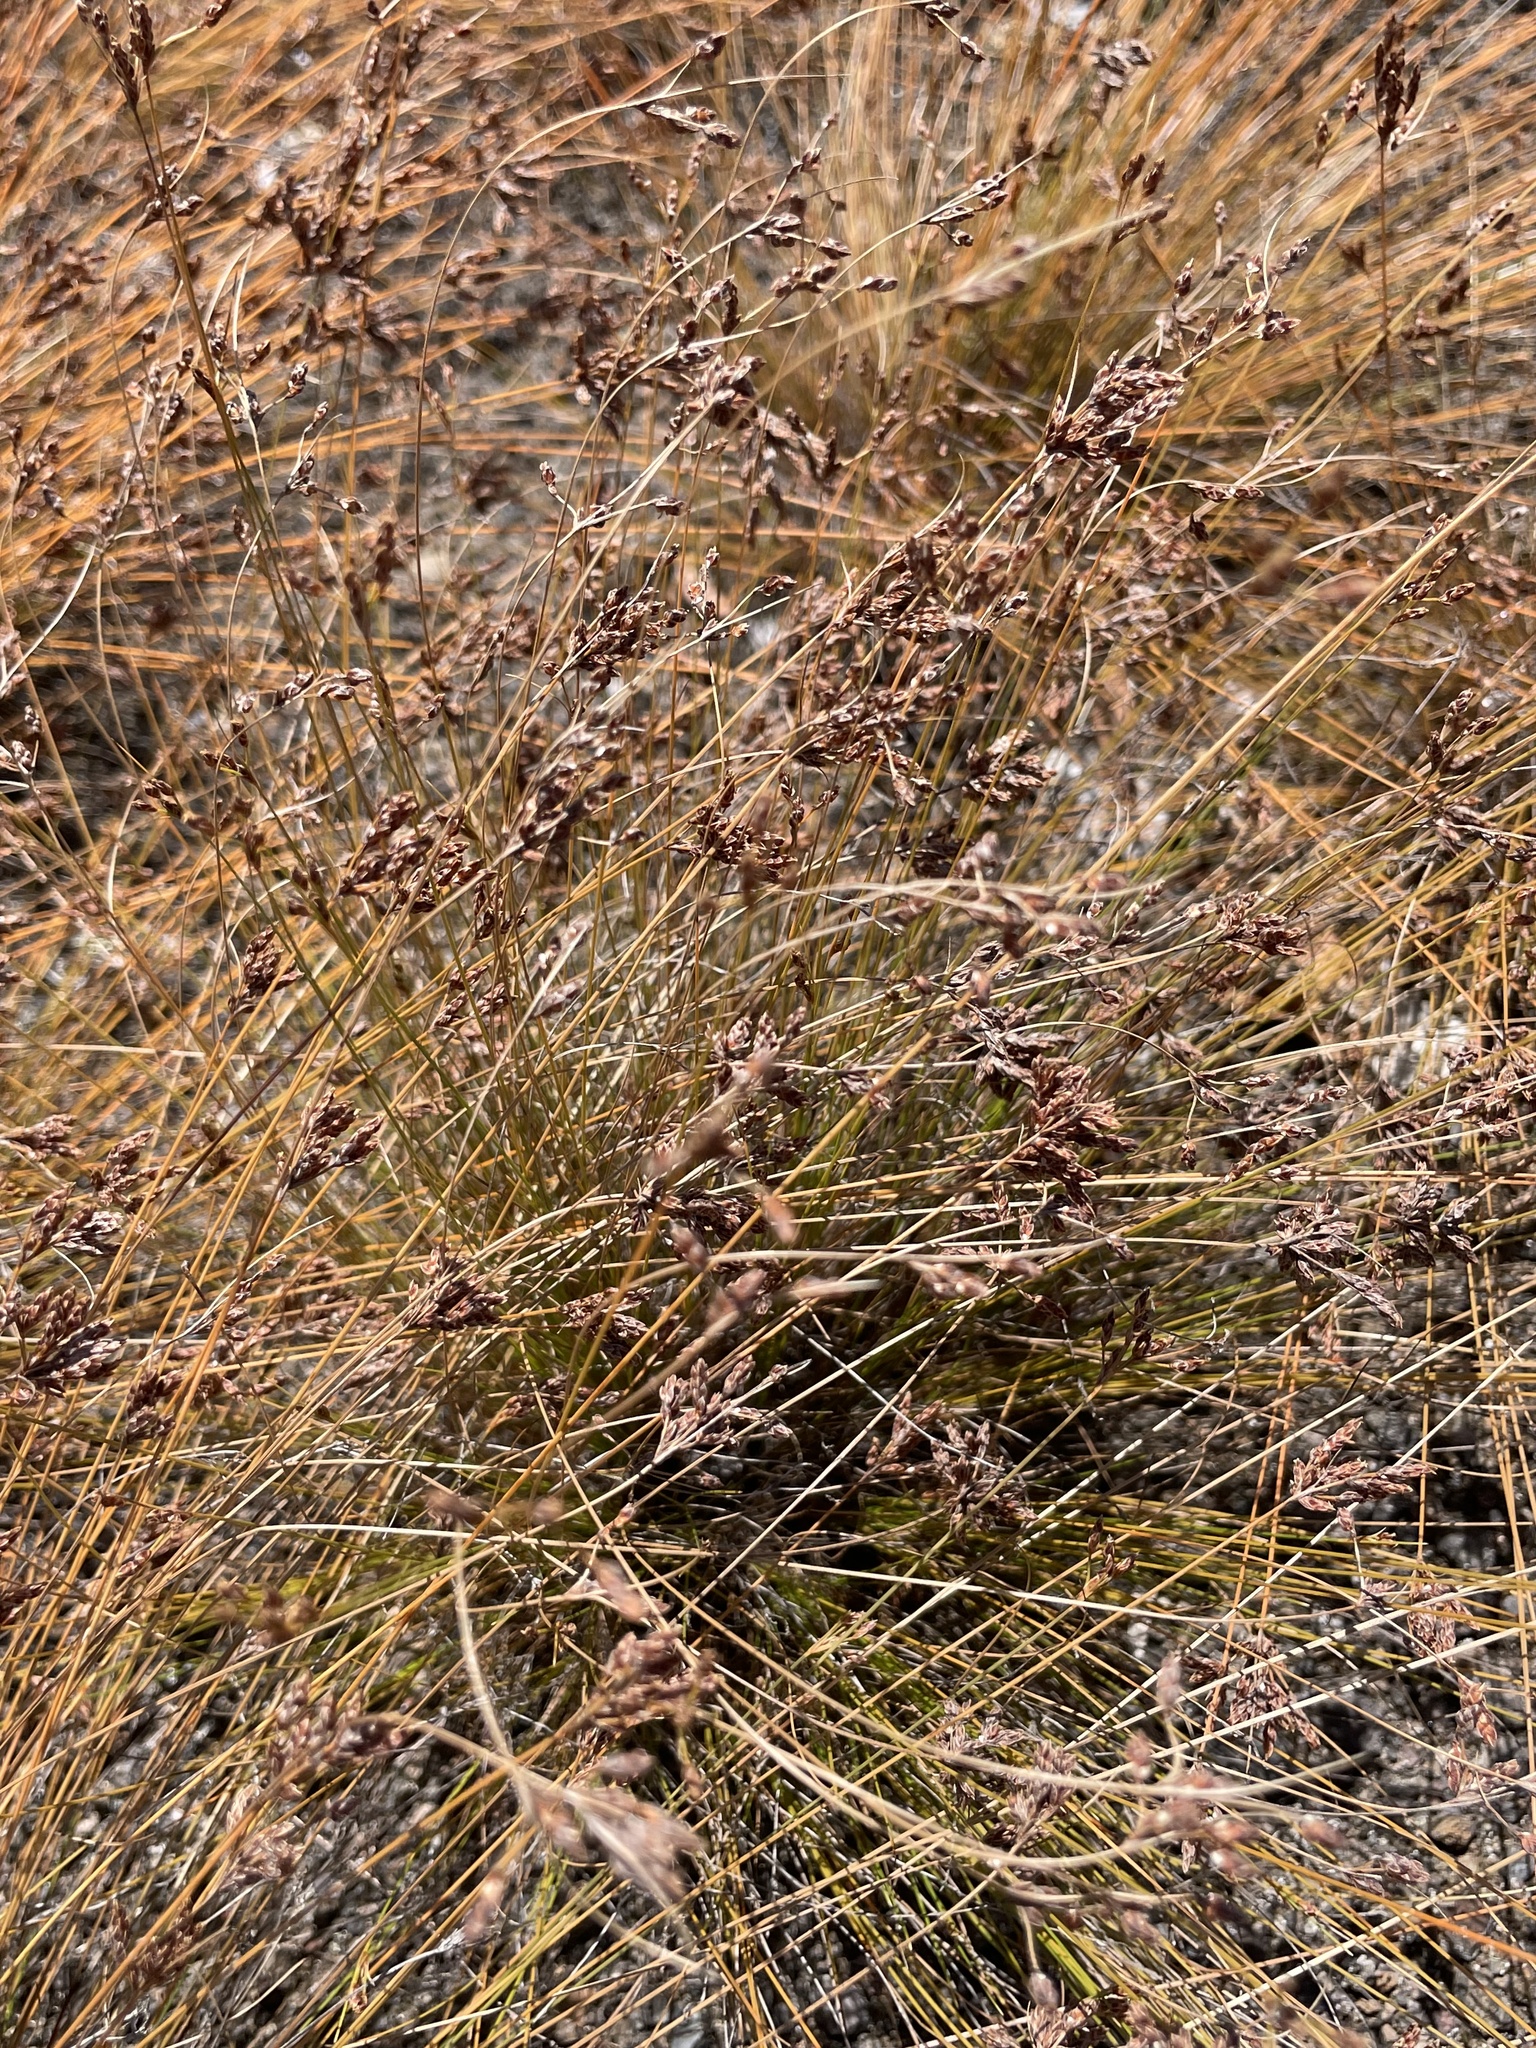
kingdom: Plantae
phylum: Tracheophyta
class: Liliopsida
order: Poales
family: Cyperaceae
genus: Bulbostylis
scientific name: Bulbostylis capillaris
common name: Densetuft hairsedge
